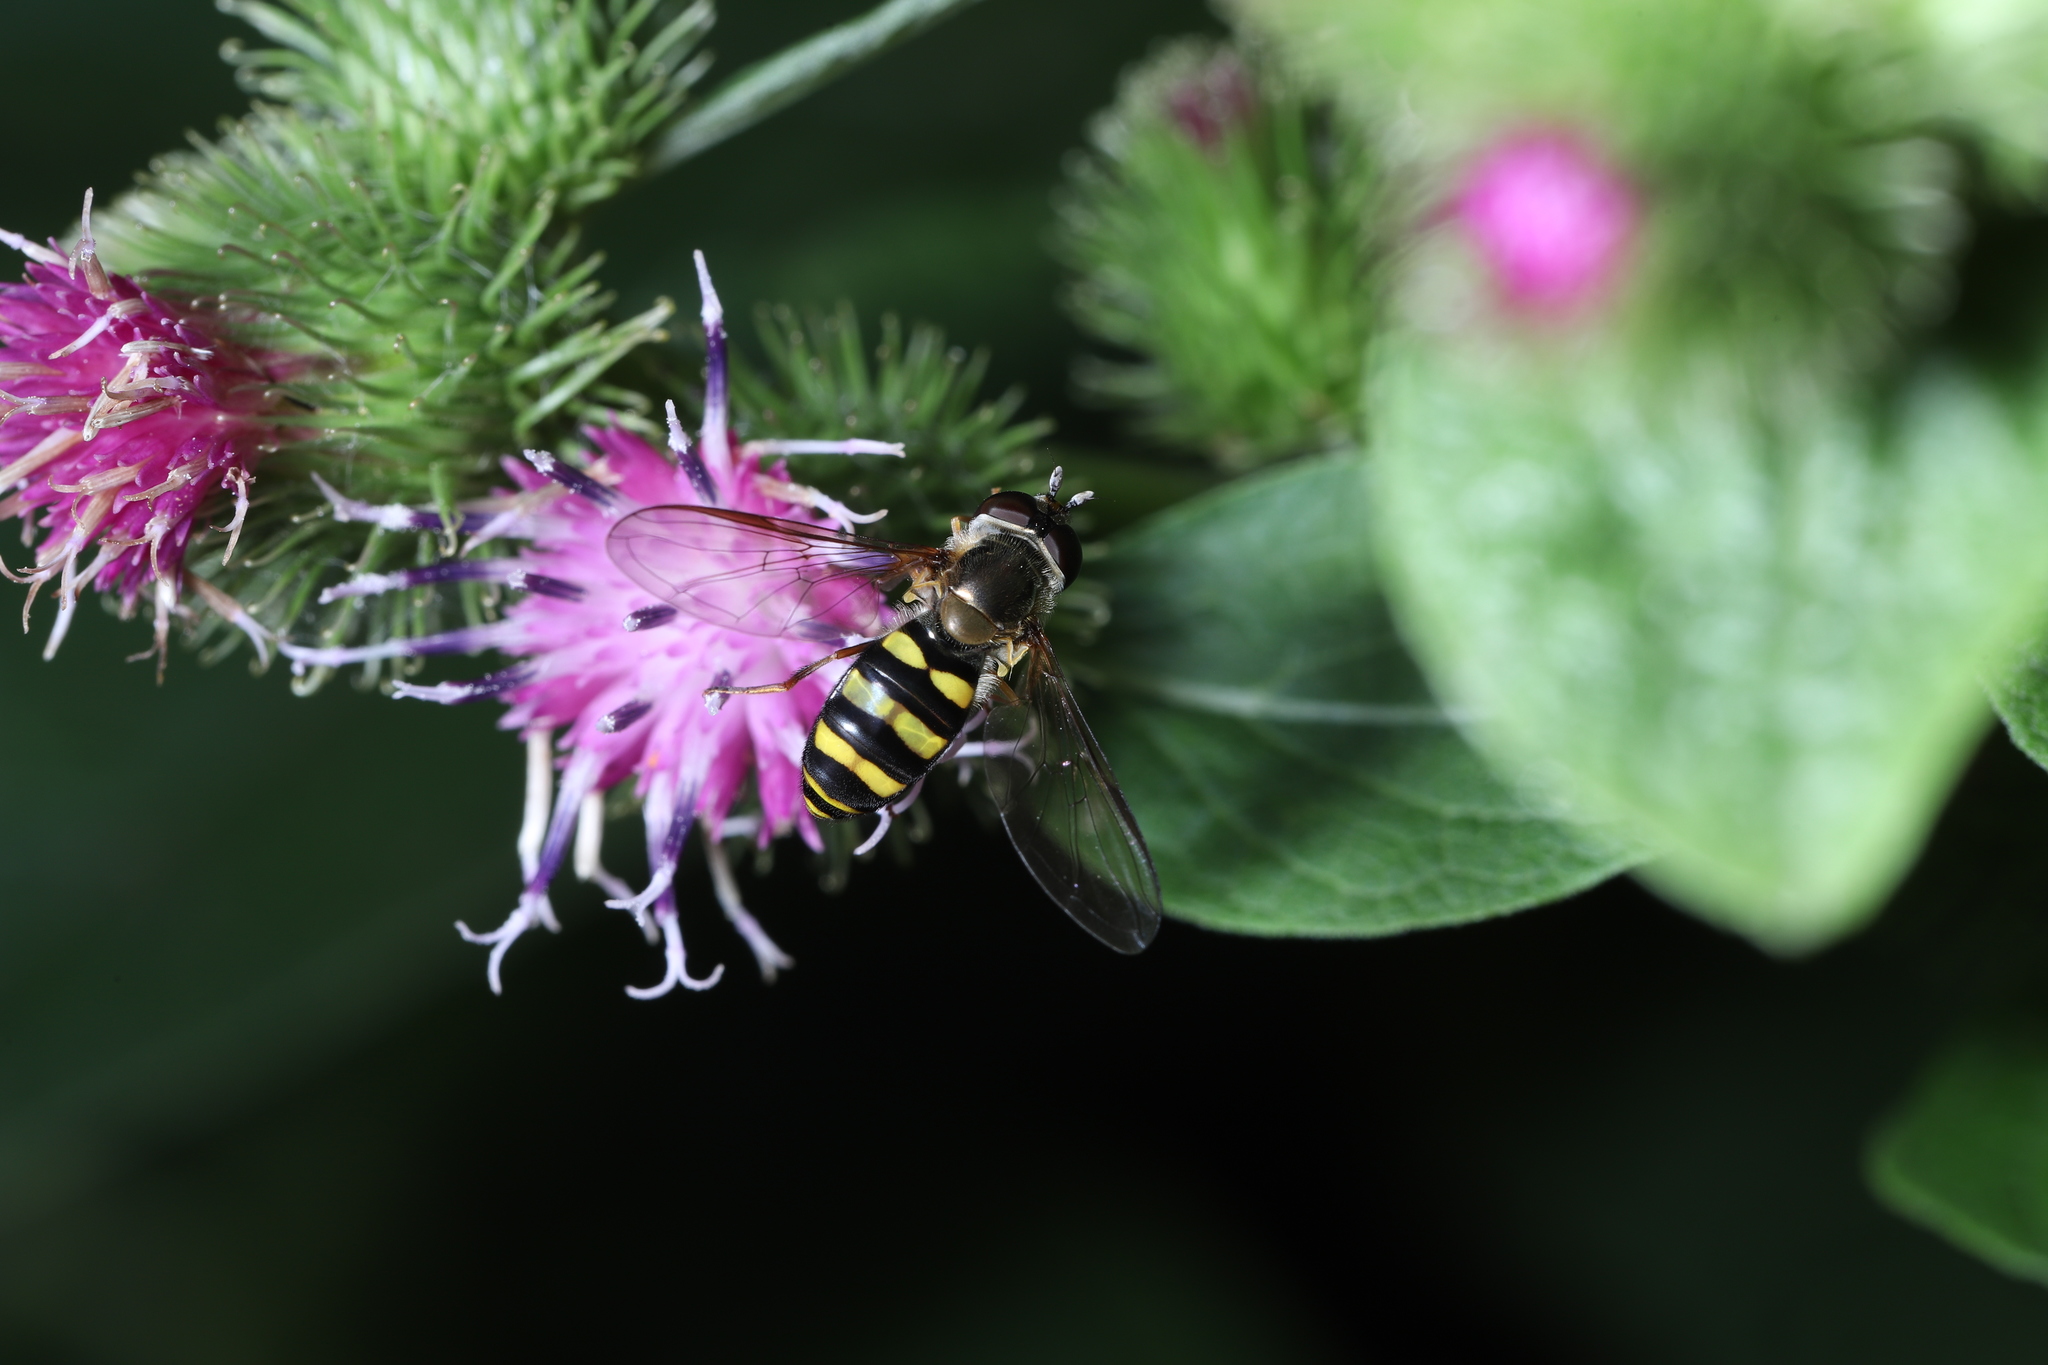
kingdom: Animalia
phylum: Arthropoda
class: Insecta
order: Diptera
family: Syrphidae
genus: Eupeodes
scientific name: Eupeodes
